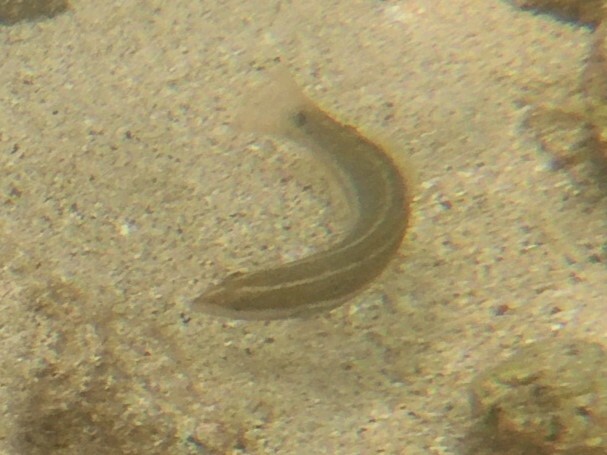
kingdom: Animalia
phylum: Chordata
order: Perciformes
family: Labridae
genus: Halichoeres
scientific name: Halichoeres dispilus
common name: Chameleon wrasse
